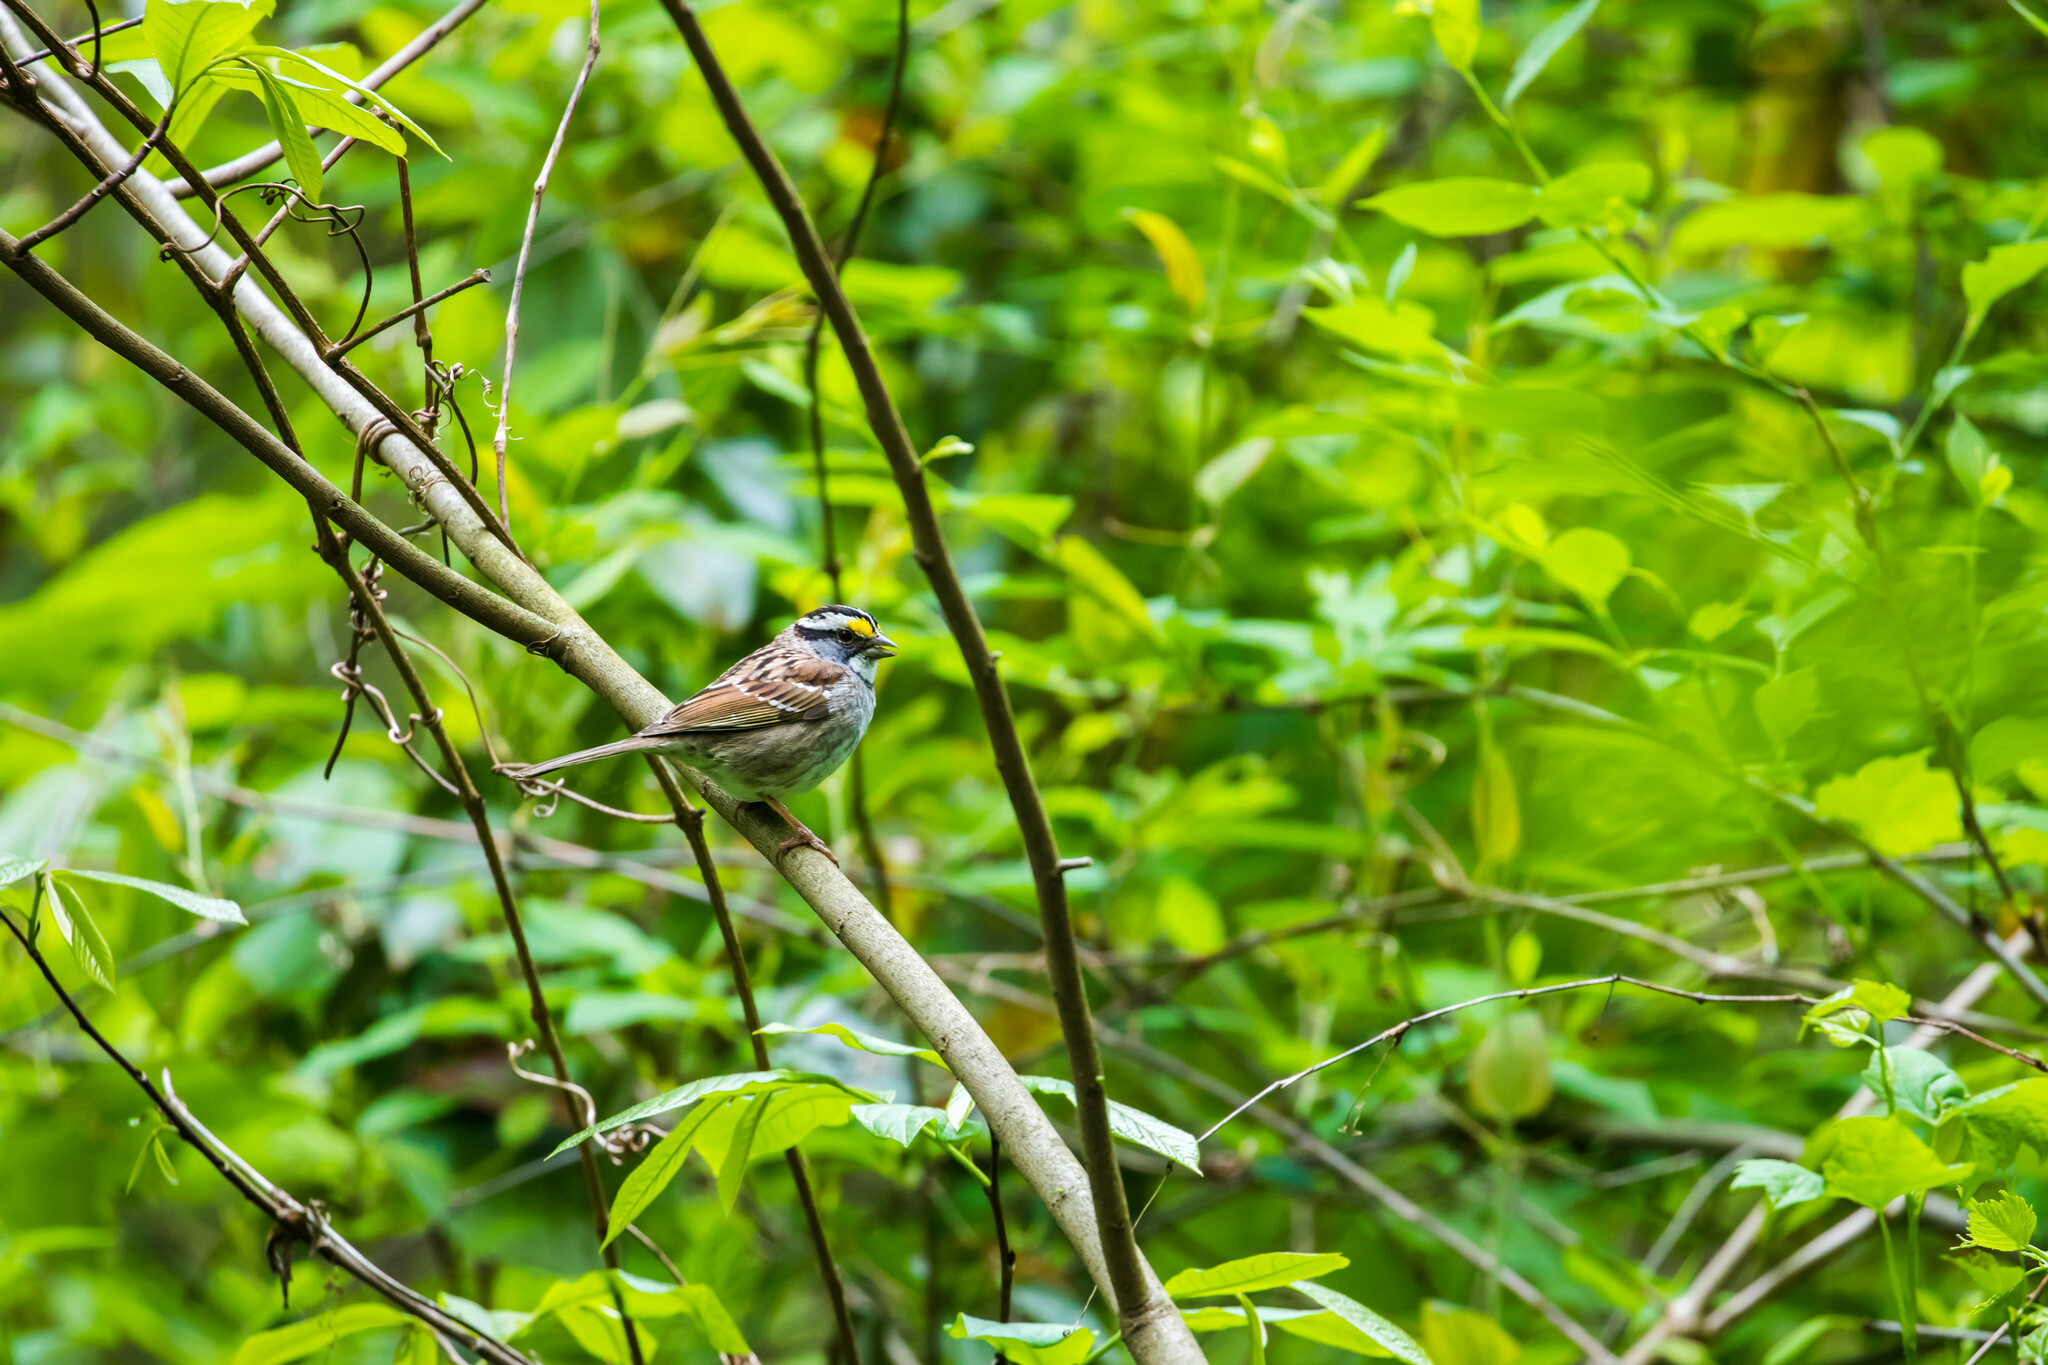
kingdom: Animalia
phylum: Chordata
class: Aves
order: Passeriformes
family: Passerellidae
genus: Zonotrichia
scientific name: Zonotrichia albicollis
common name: White-throated sparrow
